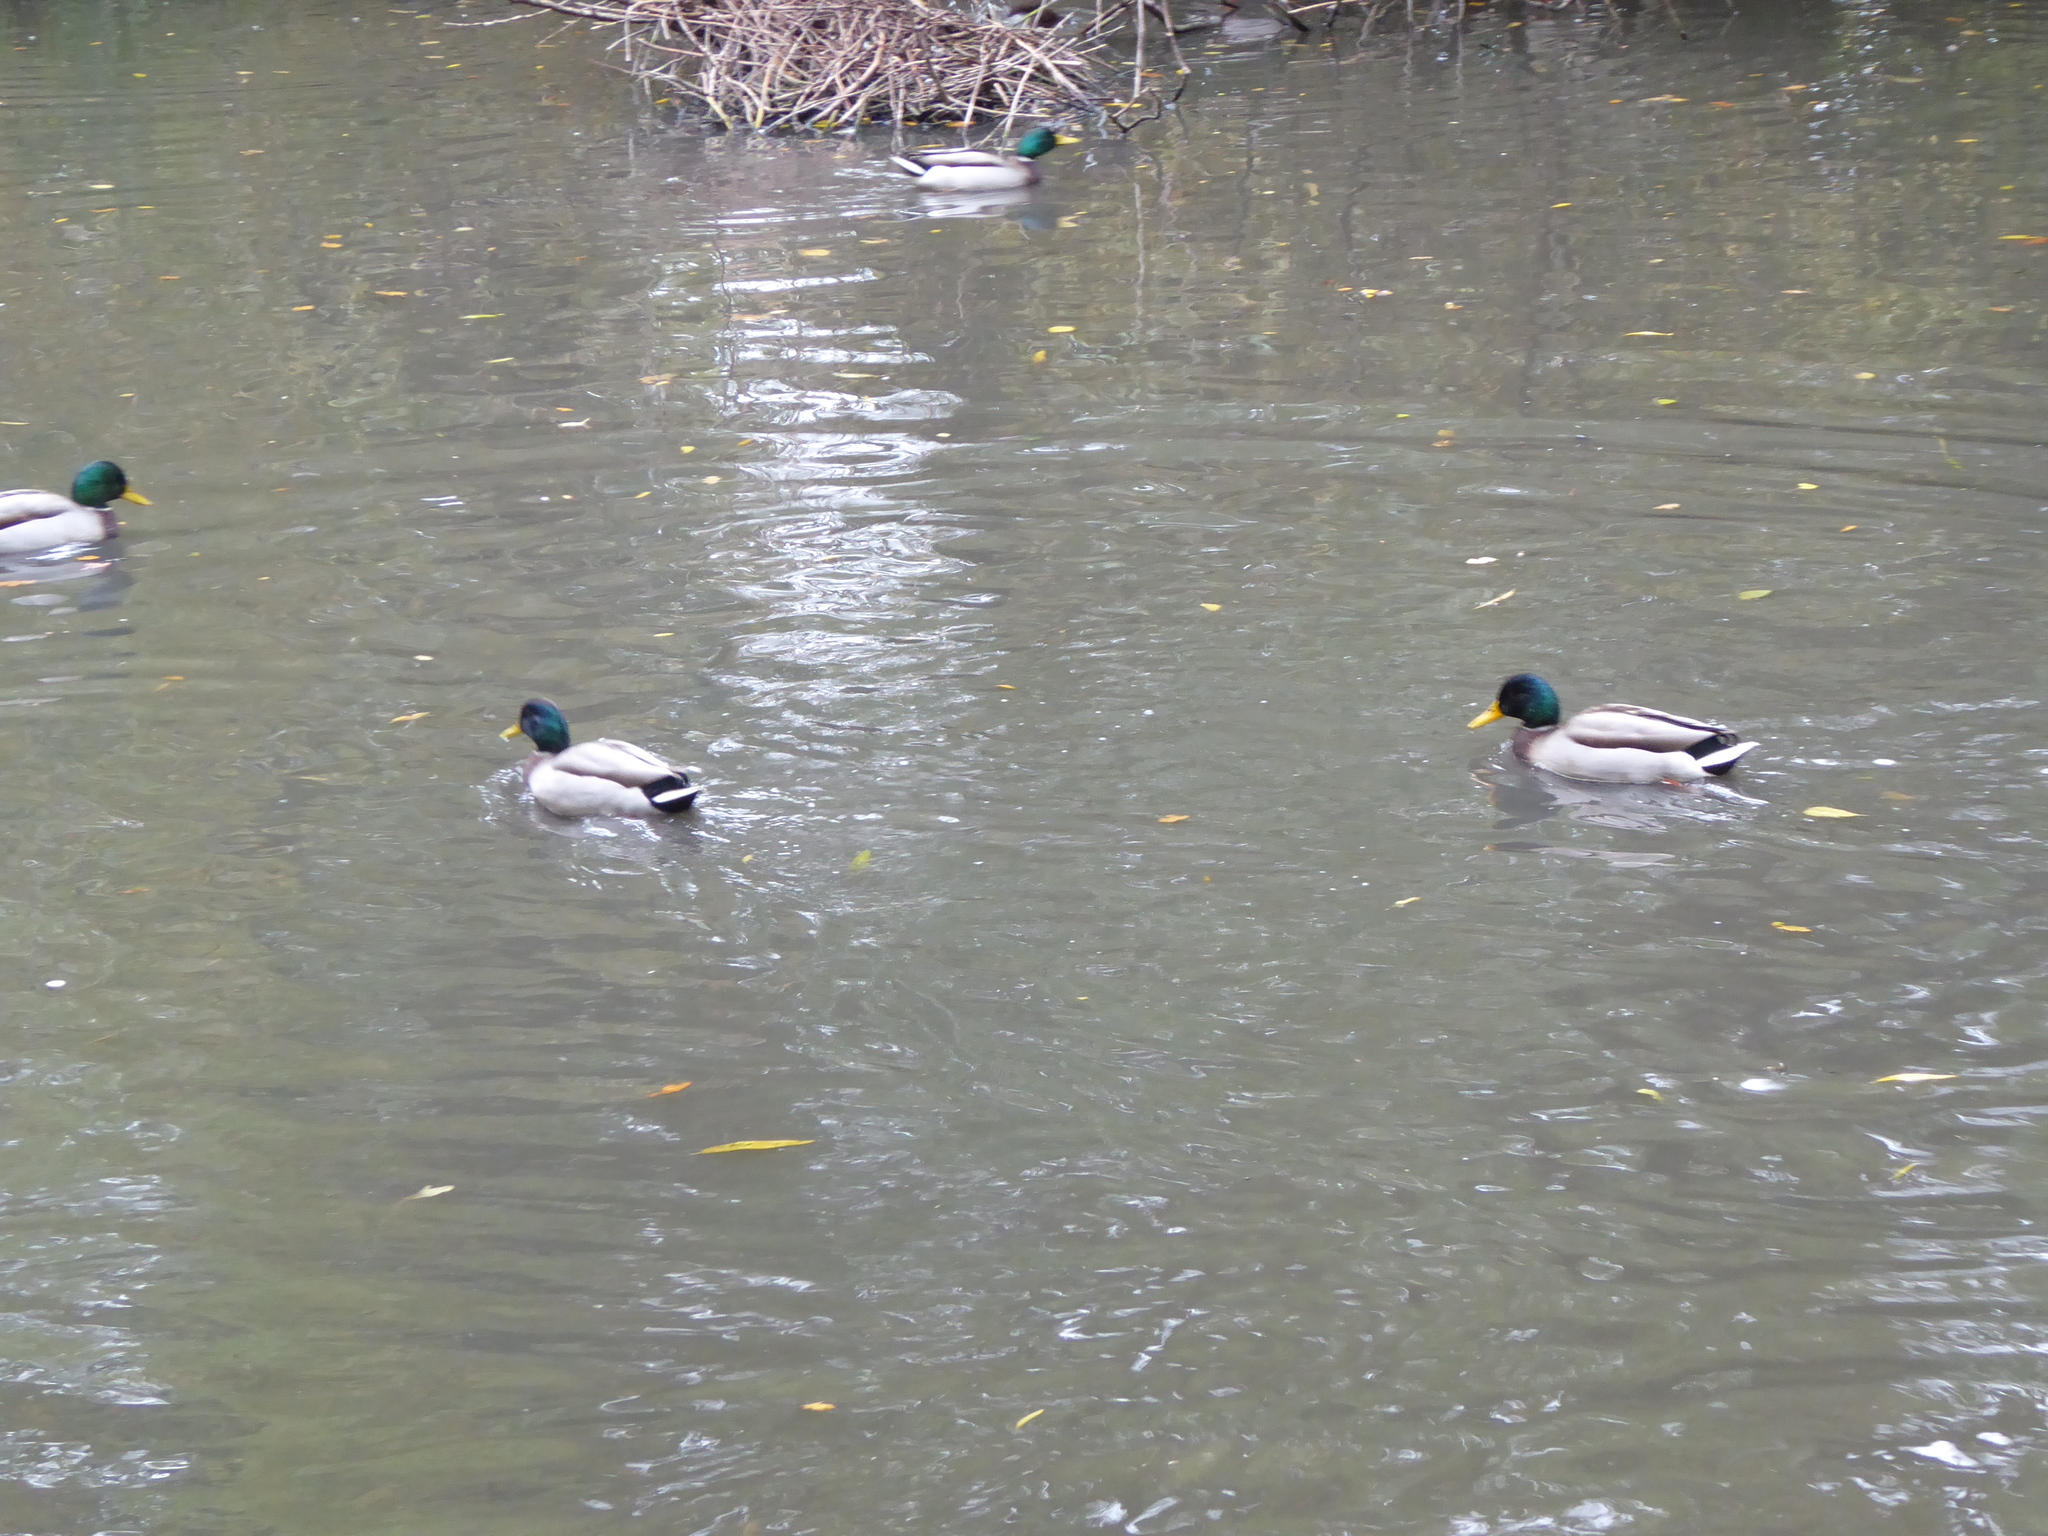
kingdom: Animalia
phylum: Chordata
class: Aves
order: Anseriformes
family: Anatidae
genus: Anas
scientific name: Anas platyrhynchos
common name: Mallard
